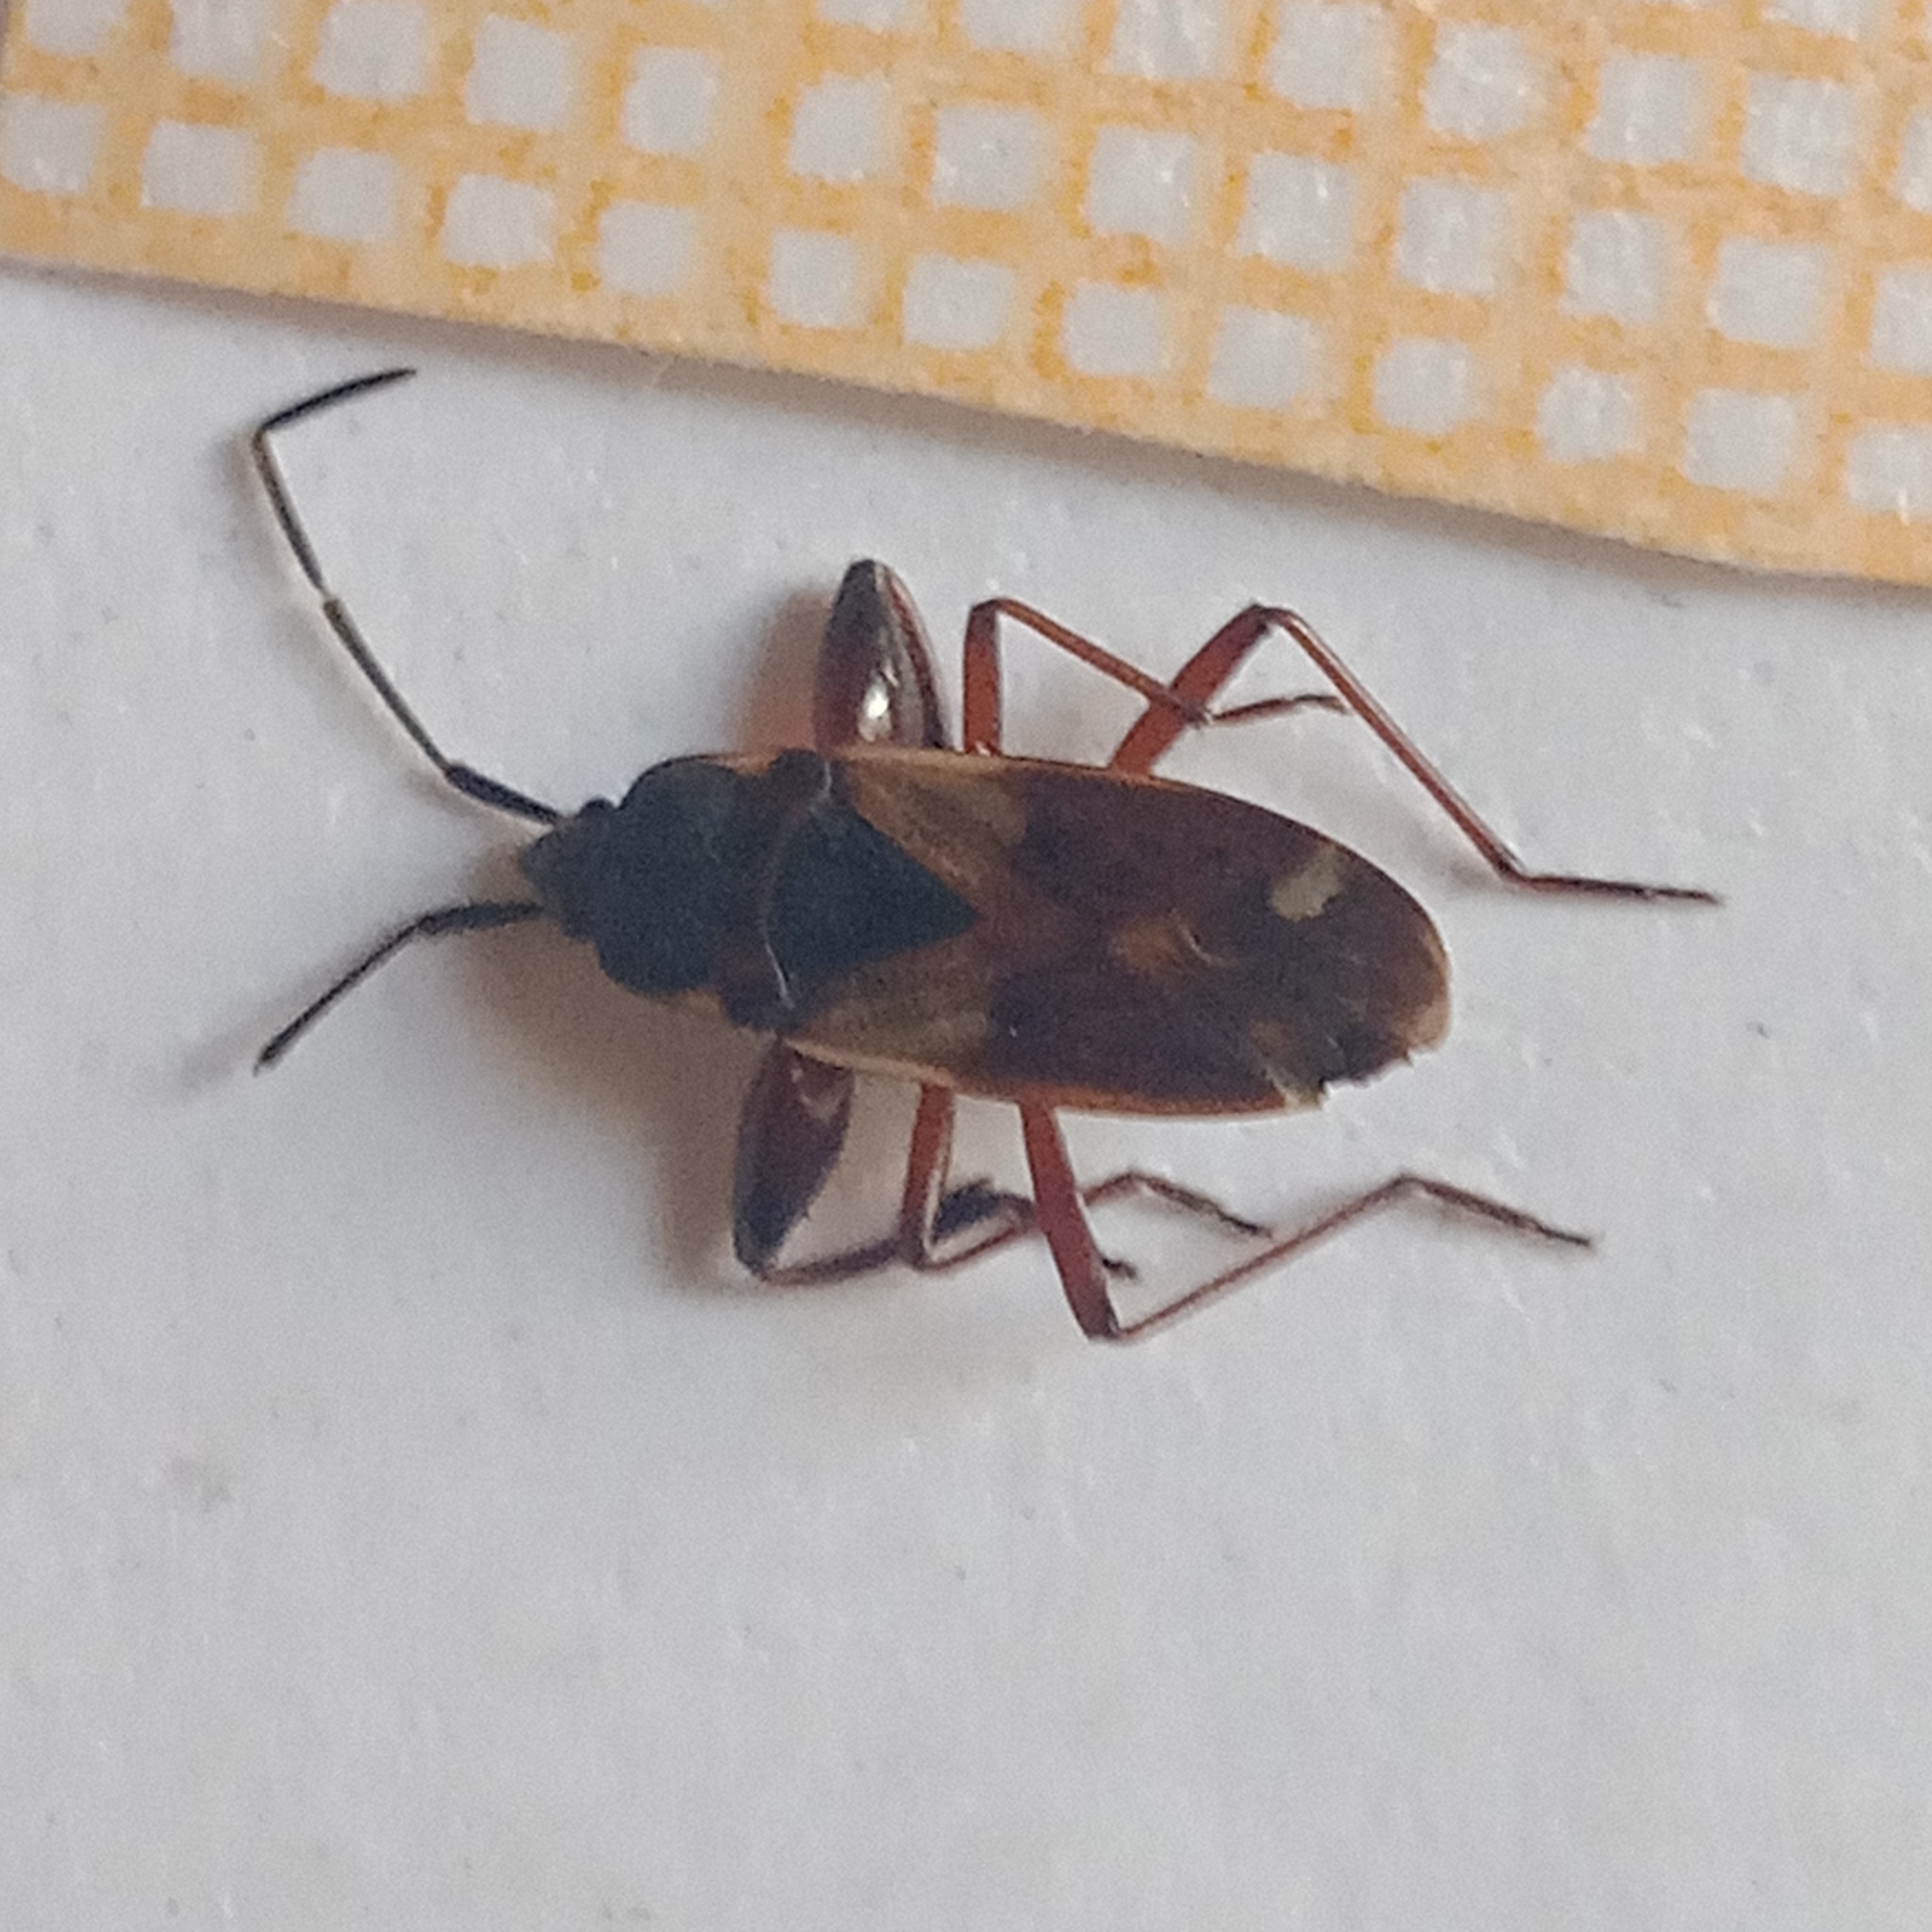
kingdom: Animalia
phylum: Arthropoda
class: Insecta
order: Hemiptera
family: Rhyparochromidae
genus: Eremocoris
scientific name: Eremocoris abietis
